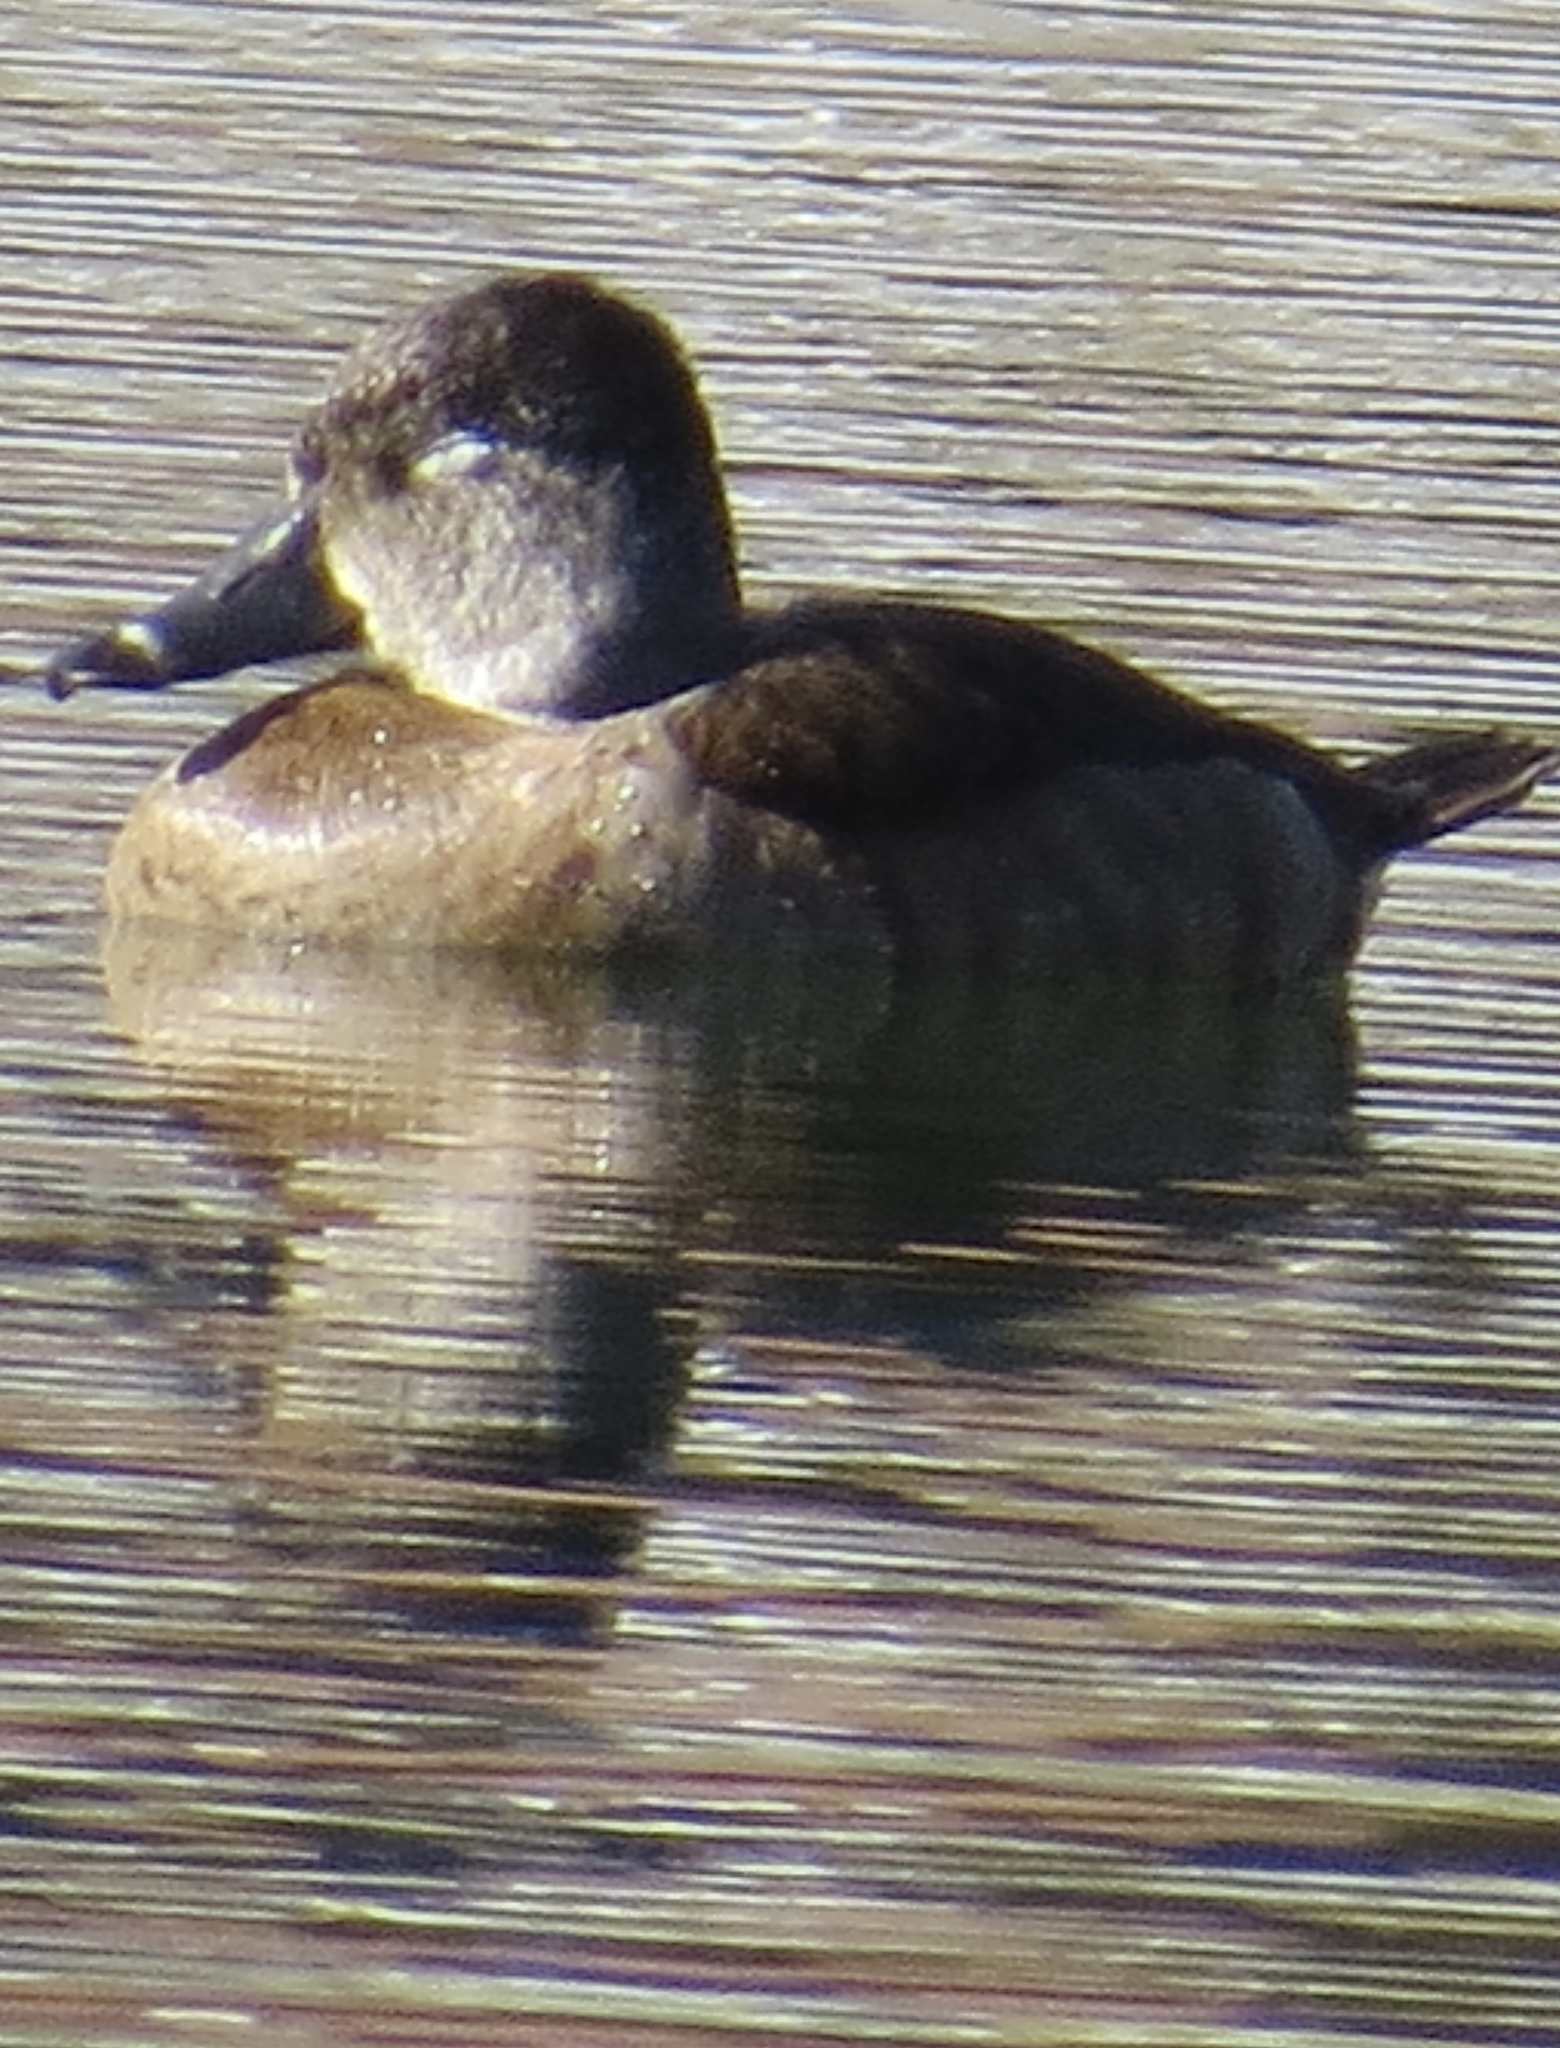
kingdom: Animalia
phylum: Chordata
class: Aves
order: Anseriformes
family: Anatidae
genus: Aythya
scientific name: Aythya collaris
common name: Ring-necked duck
